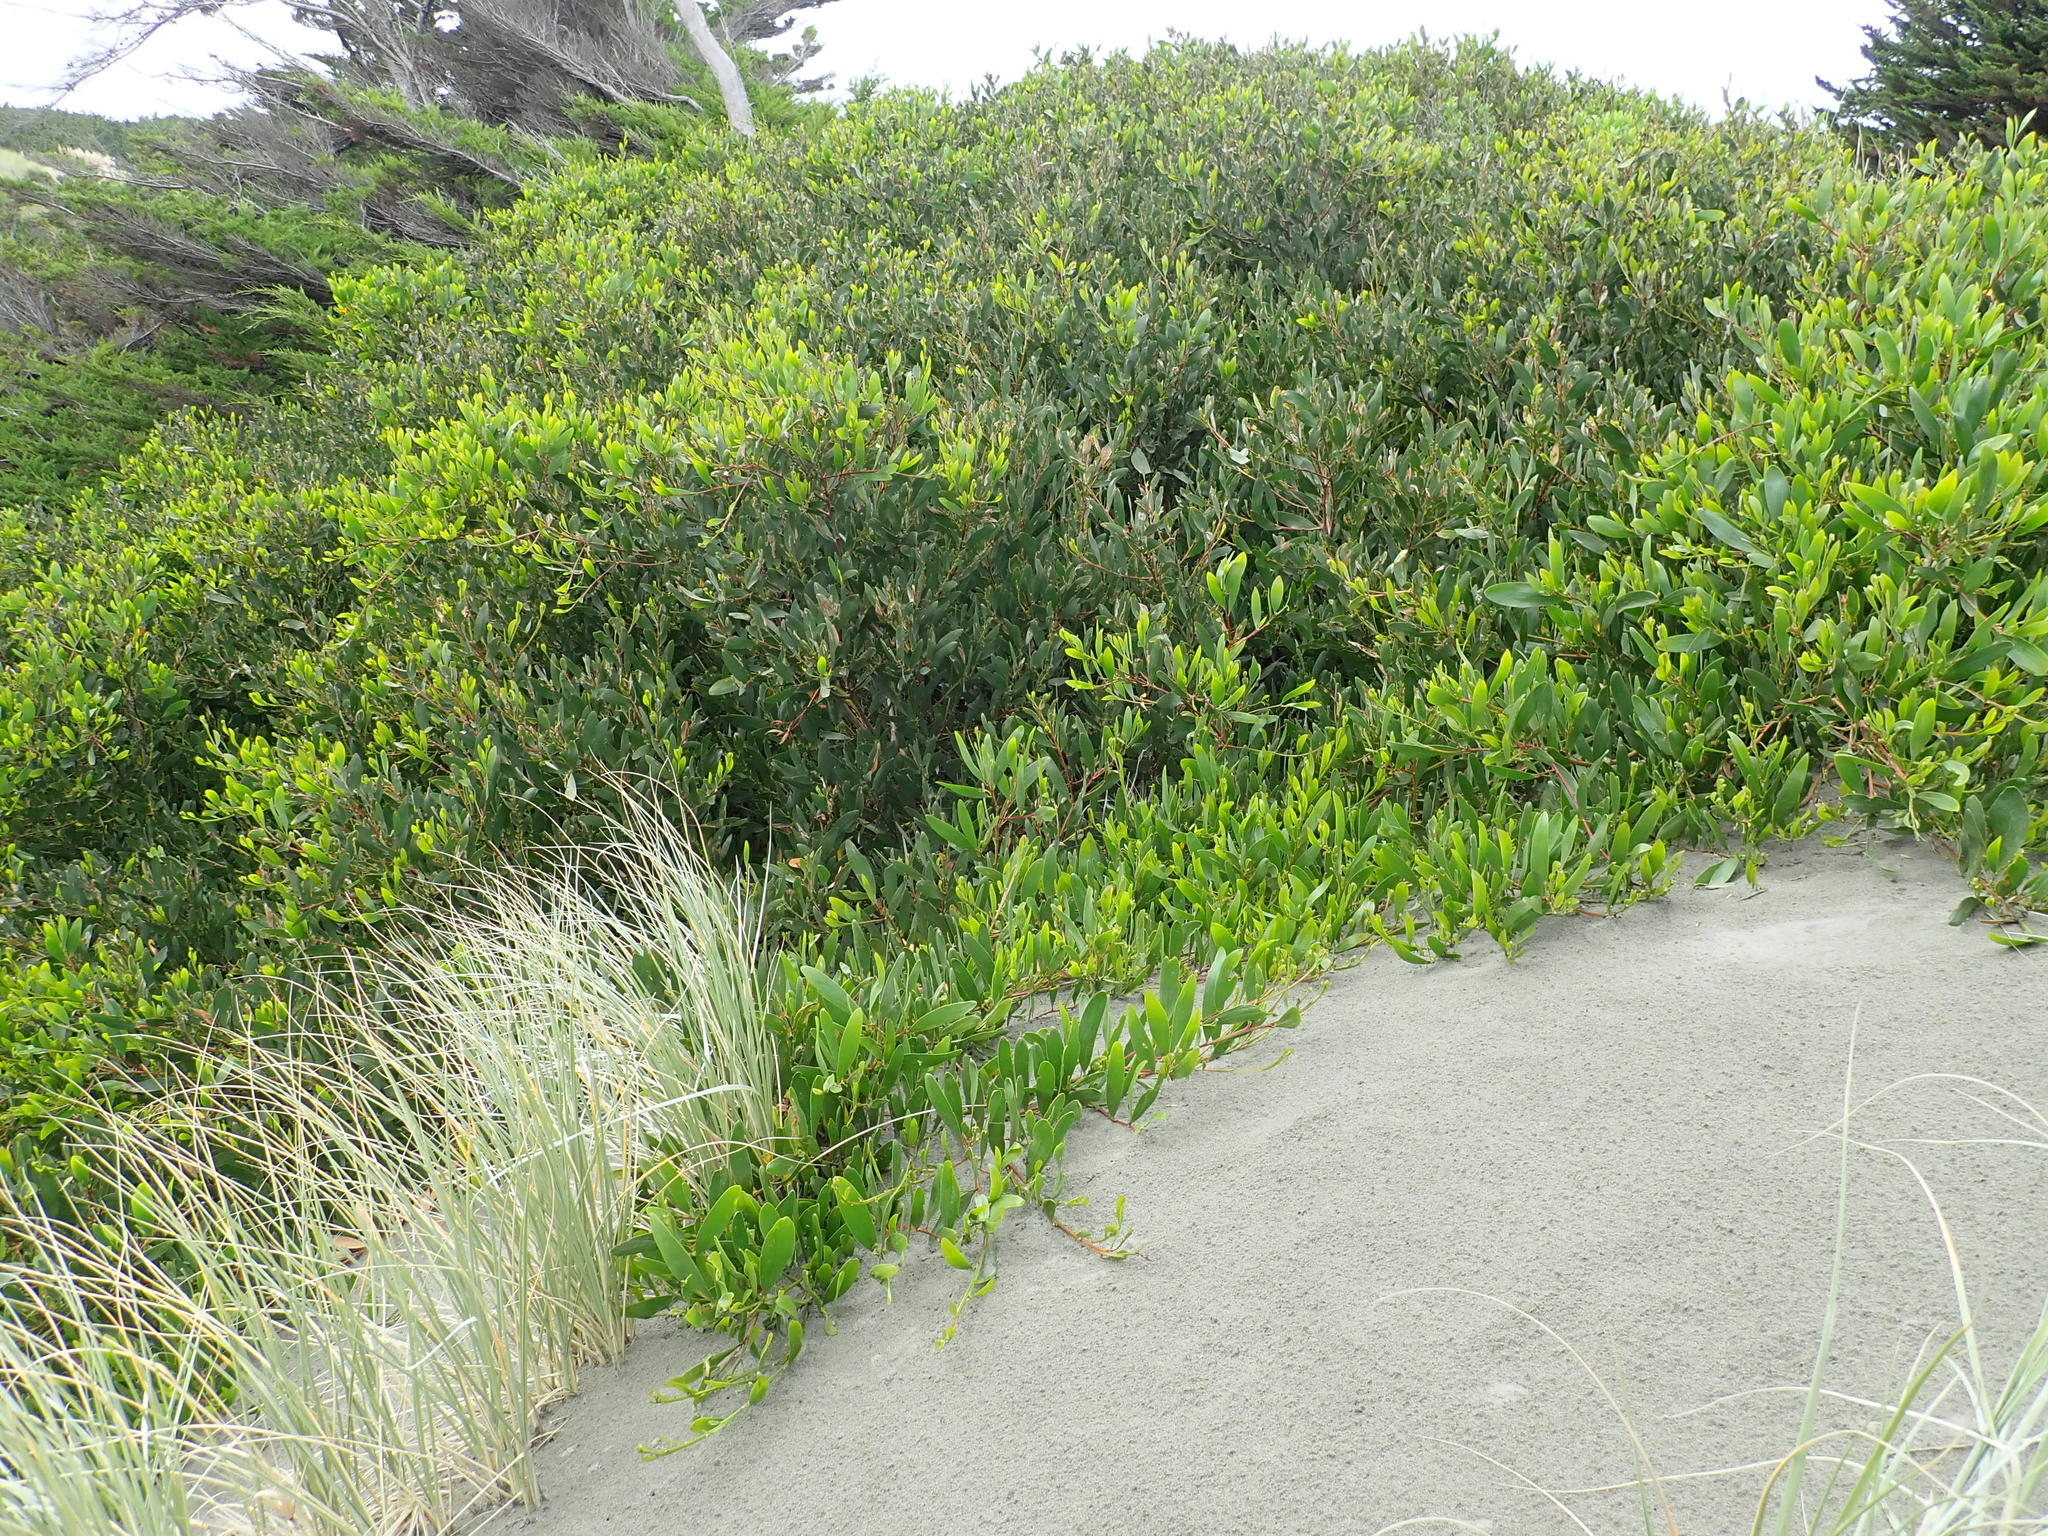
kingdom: Plantae
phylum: Tracheophyta
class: Magnoliopsida
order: Fabales
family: Fabaceae
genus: Acacia
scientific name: Acacia longifolia
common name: Sydney golden wattle
